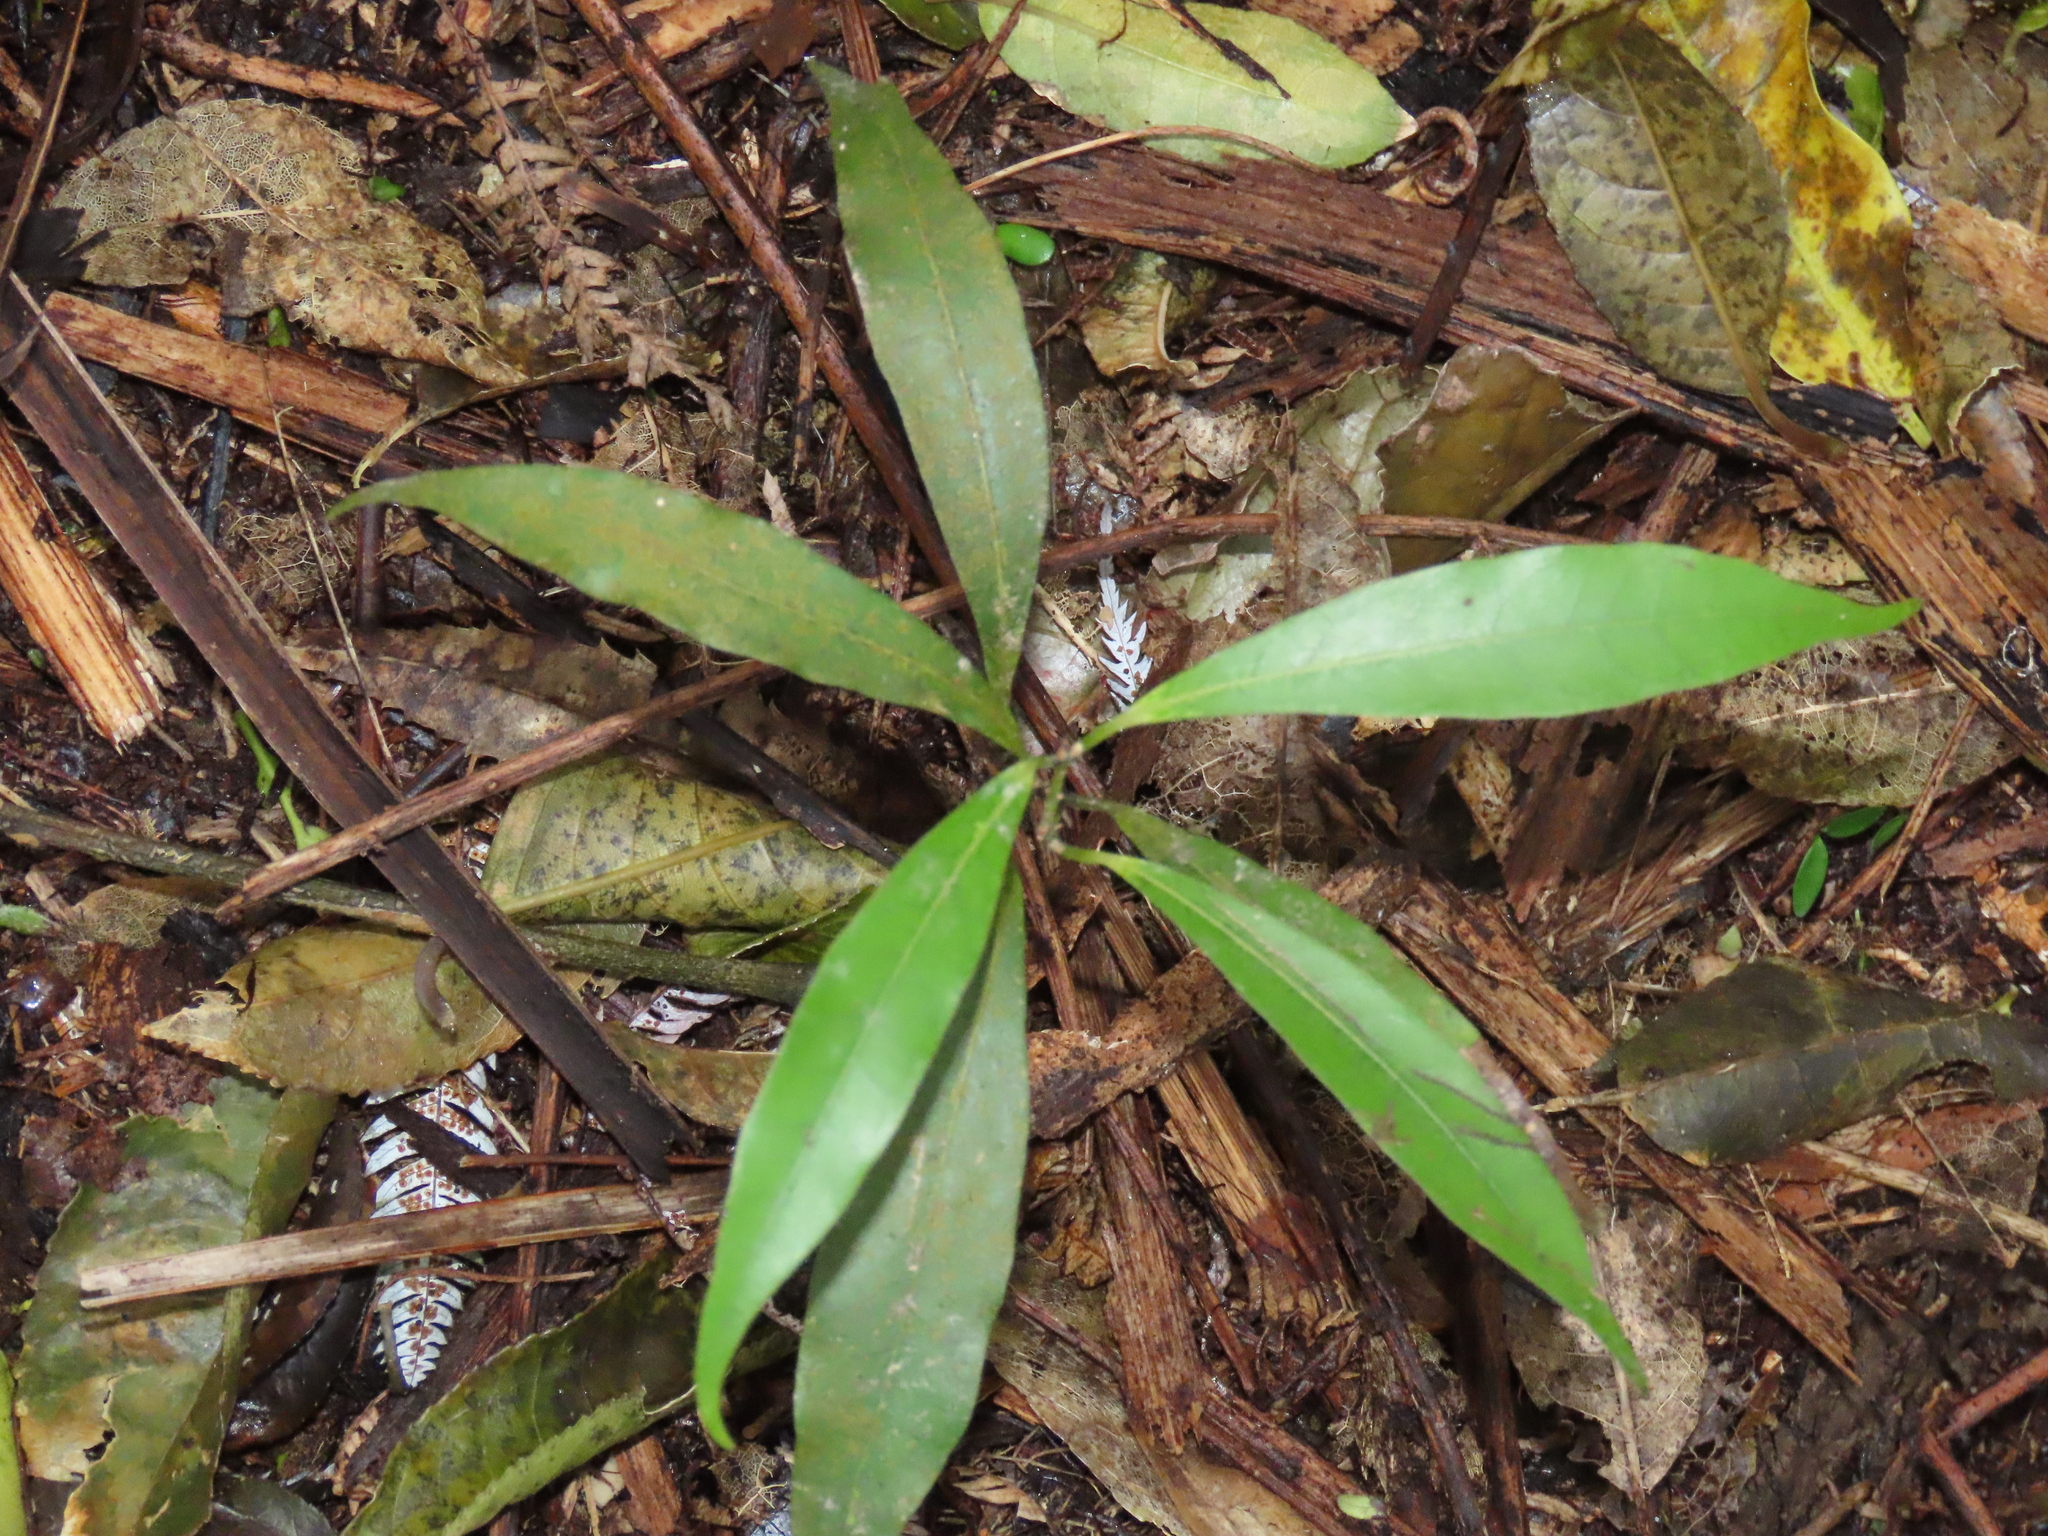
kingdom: Plantae
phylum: Tracheophyta
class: Magnoliopsida
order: Laurales
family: Lauraceae
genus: Beilschmiedia
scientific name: Beilschmiedia tawa
